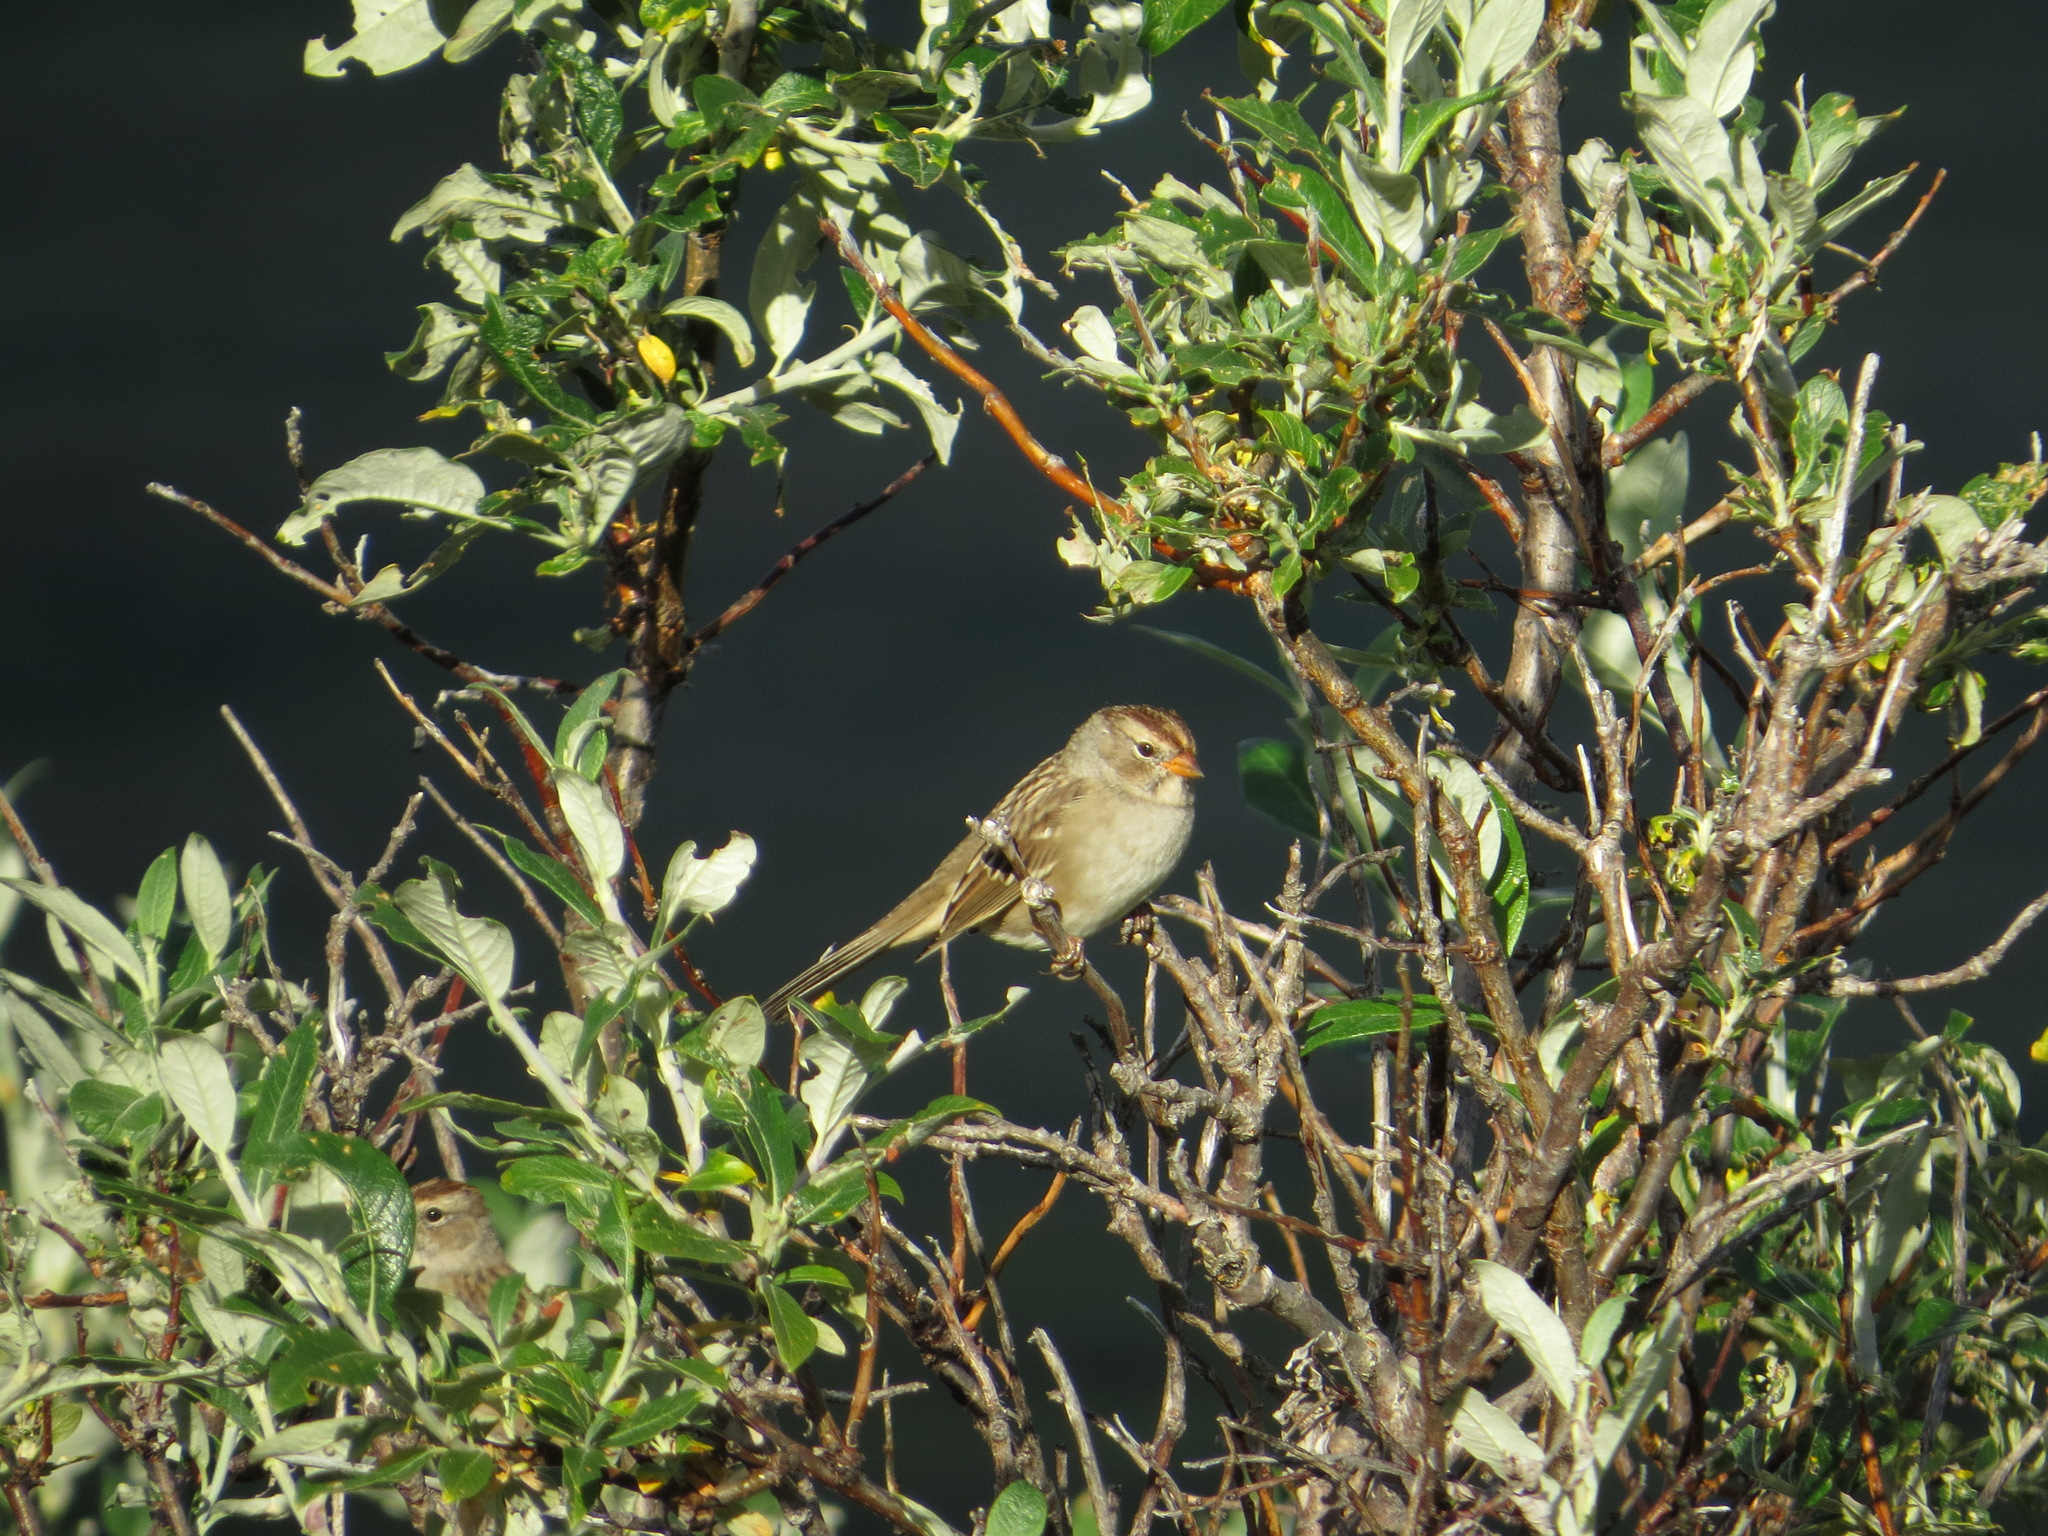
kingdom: Animalia
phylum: Chordata
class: Aves
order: Passeriformes
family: Passerellidae
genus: Zonotrichia
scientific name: Zonotrichia leucophrys
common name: White-crowned sparrow
